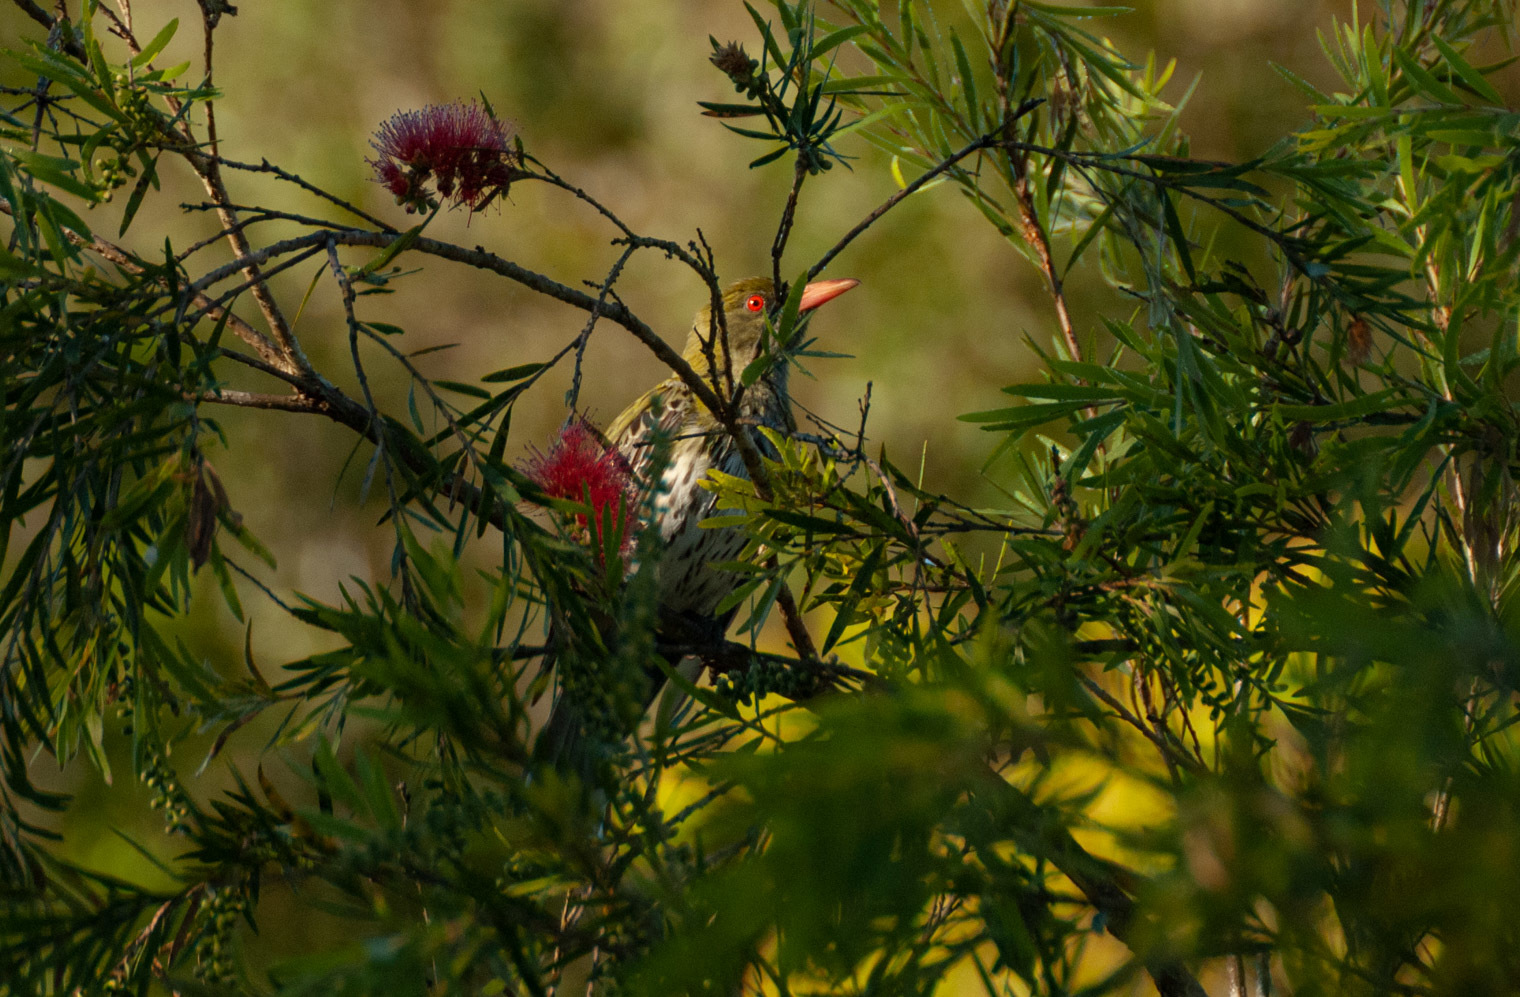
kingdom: Animalia
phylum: Chordata
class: Aves
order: Passeriformes
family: Oriolidae
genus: Oriolus
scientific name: Oriolus sagittatus
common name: Olive-backed oriole
